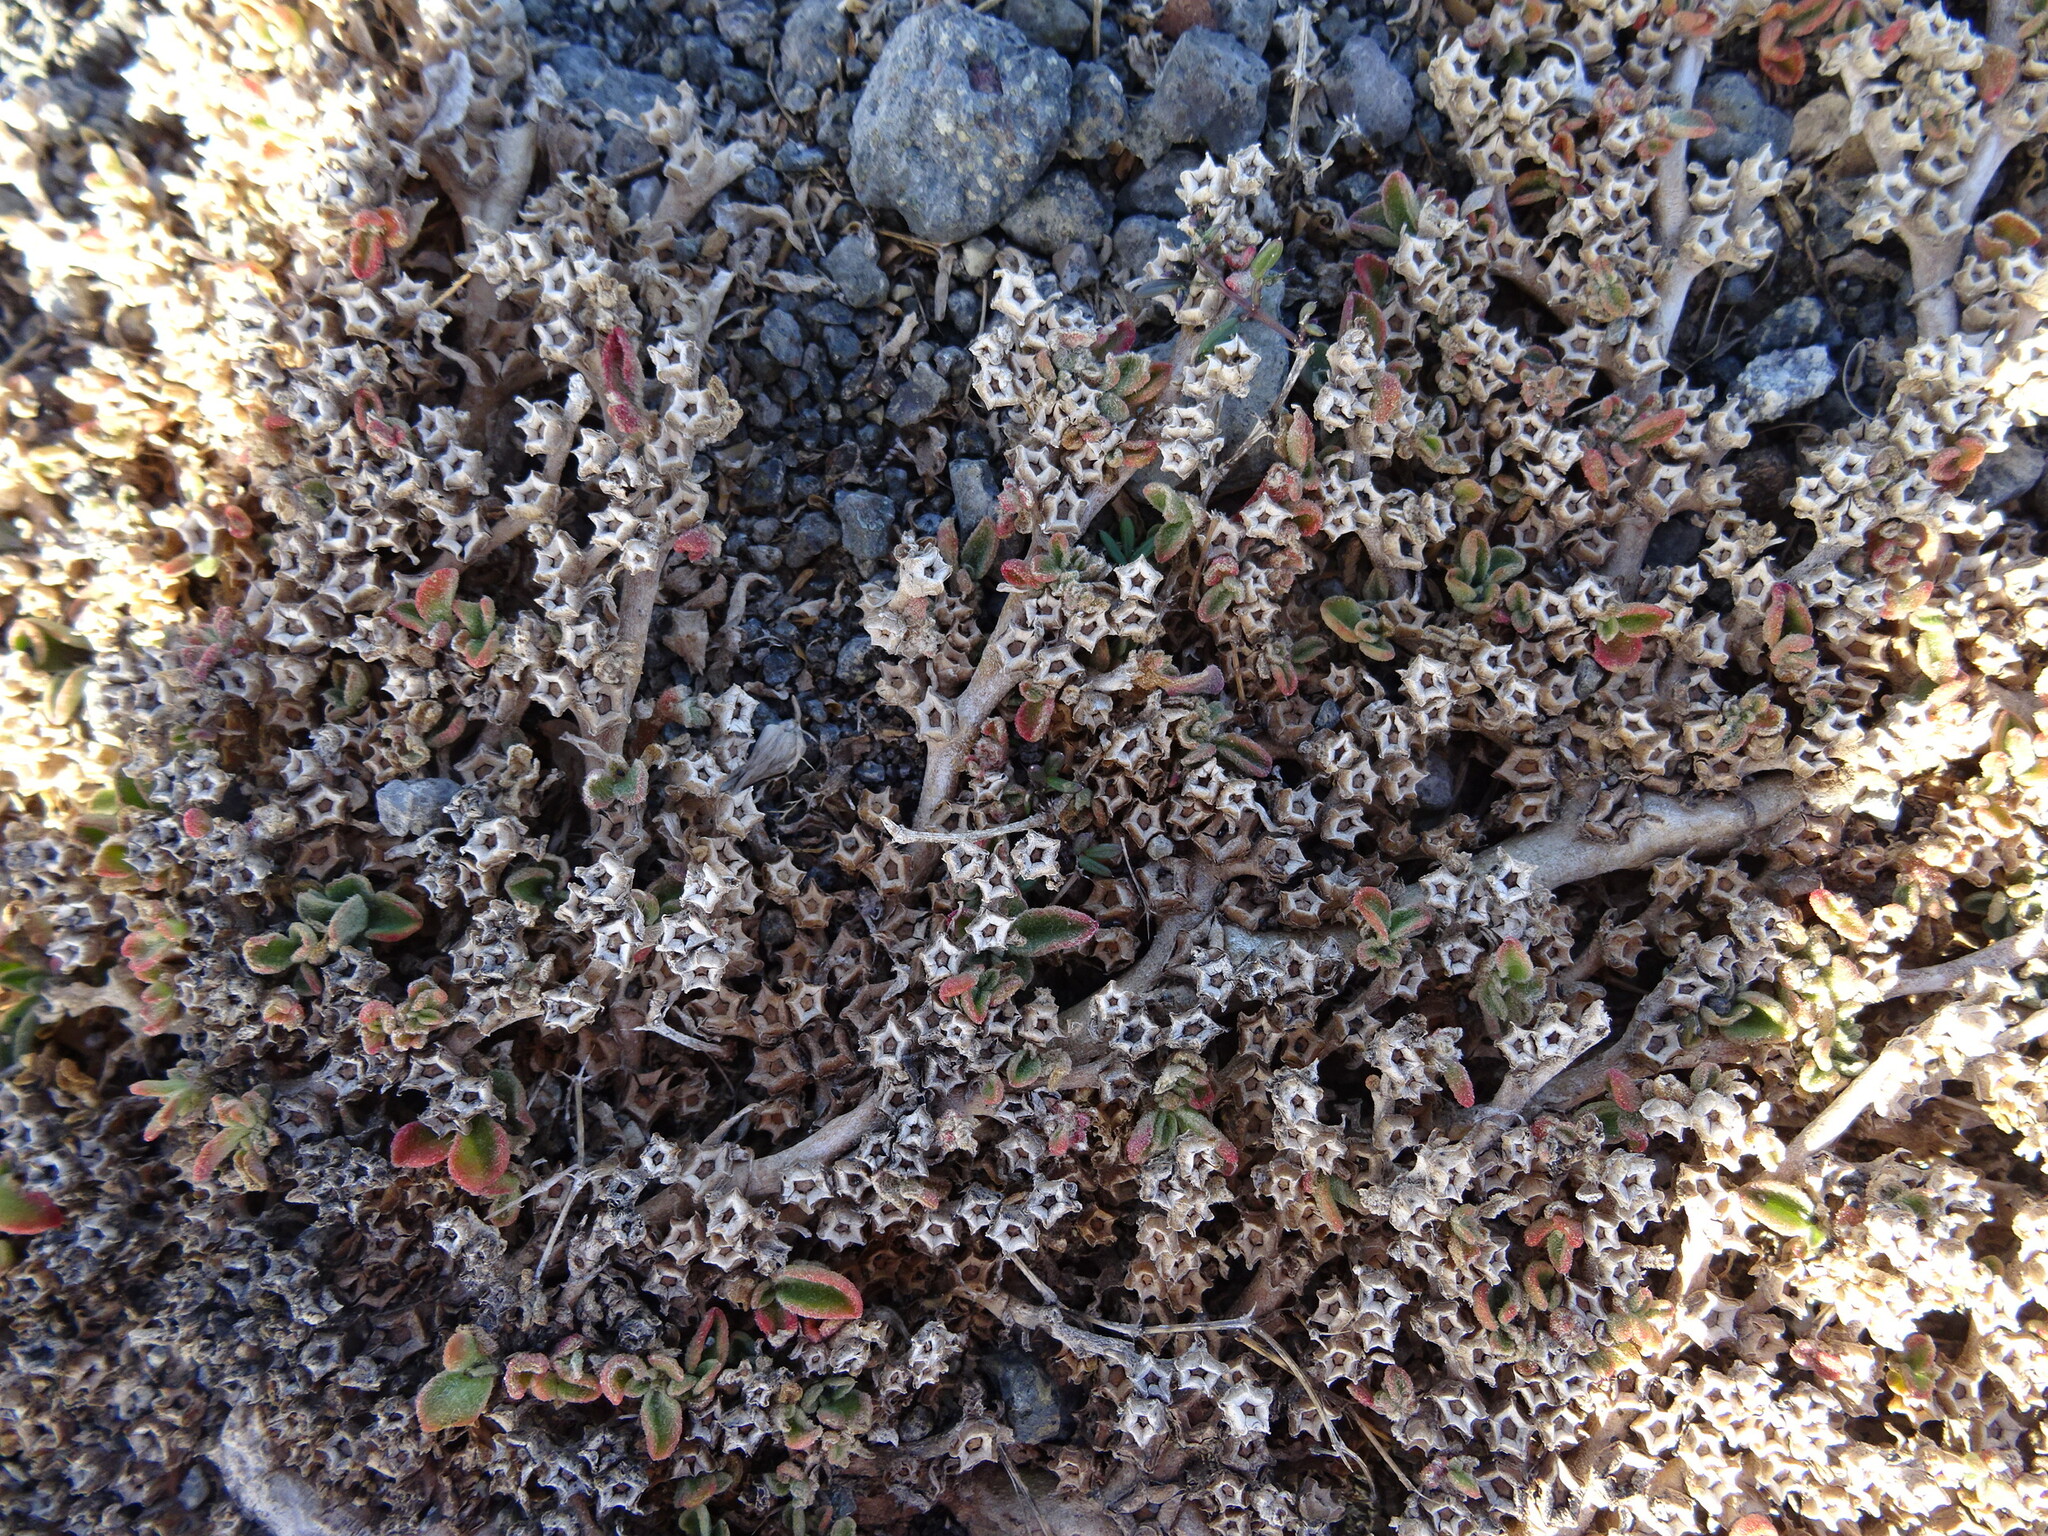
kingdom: Plantae
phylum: Tracheophyta
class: Magnoliopsida
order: Caryophyllales
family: Aizoaceae
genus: Aizoon
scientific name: Aizoon canariense
